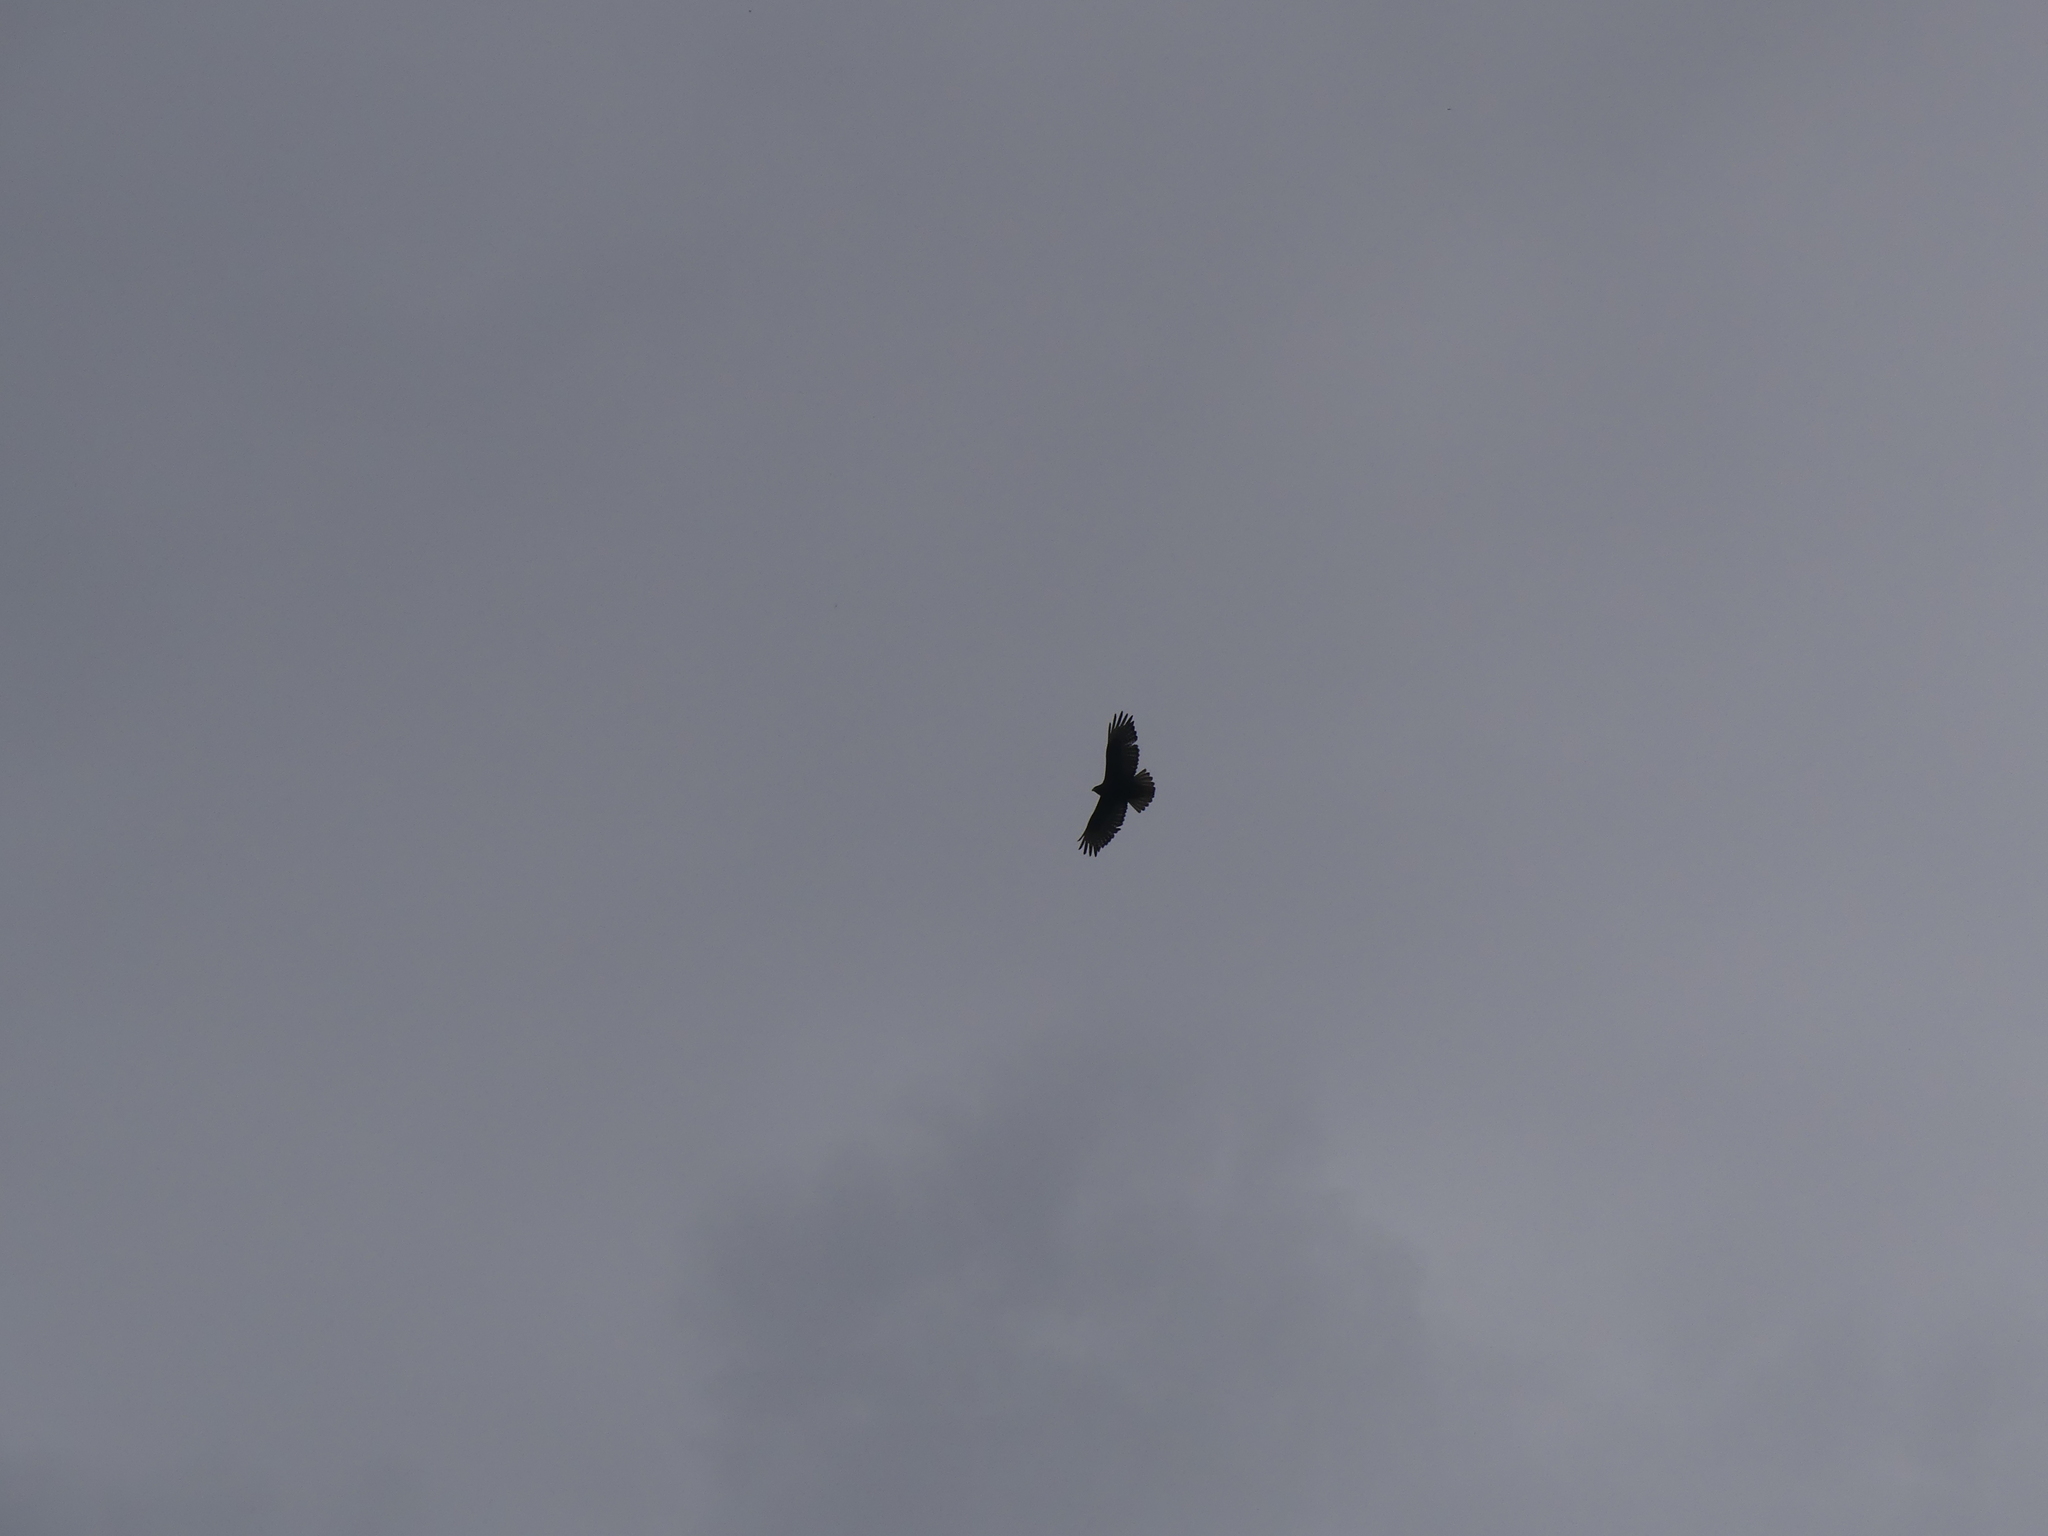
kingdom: Animalia
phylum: Chordata
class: Aves
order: Accipitriformes
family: Accipitridae
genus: Buteo
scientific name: Buteo jamaicensis
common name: Red-tailed hawk
